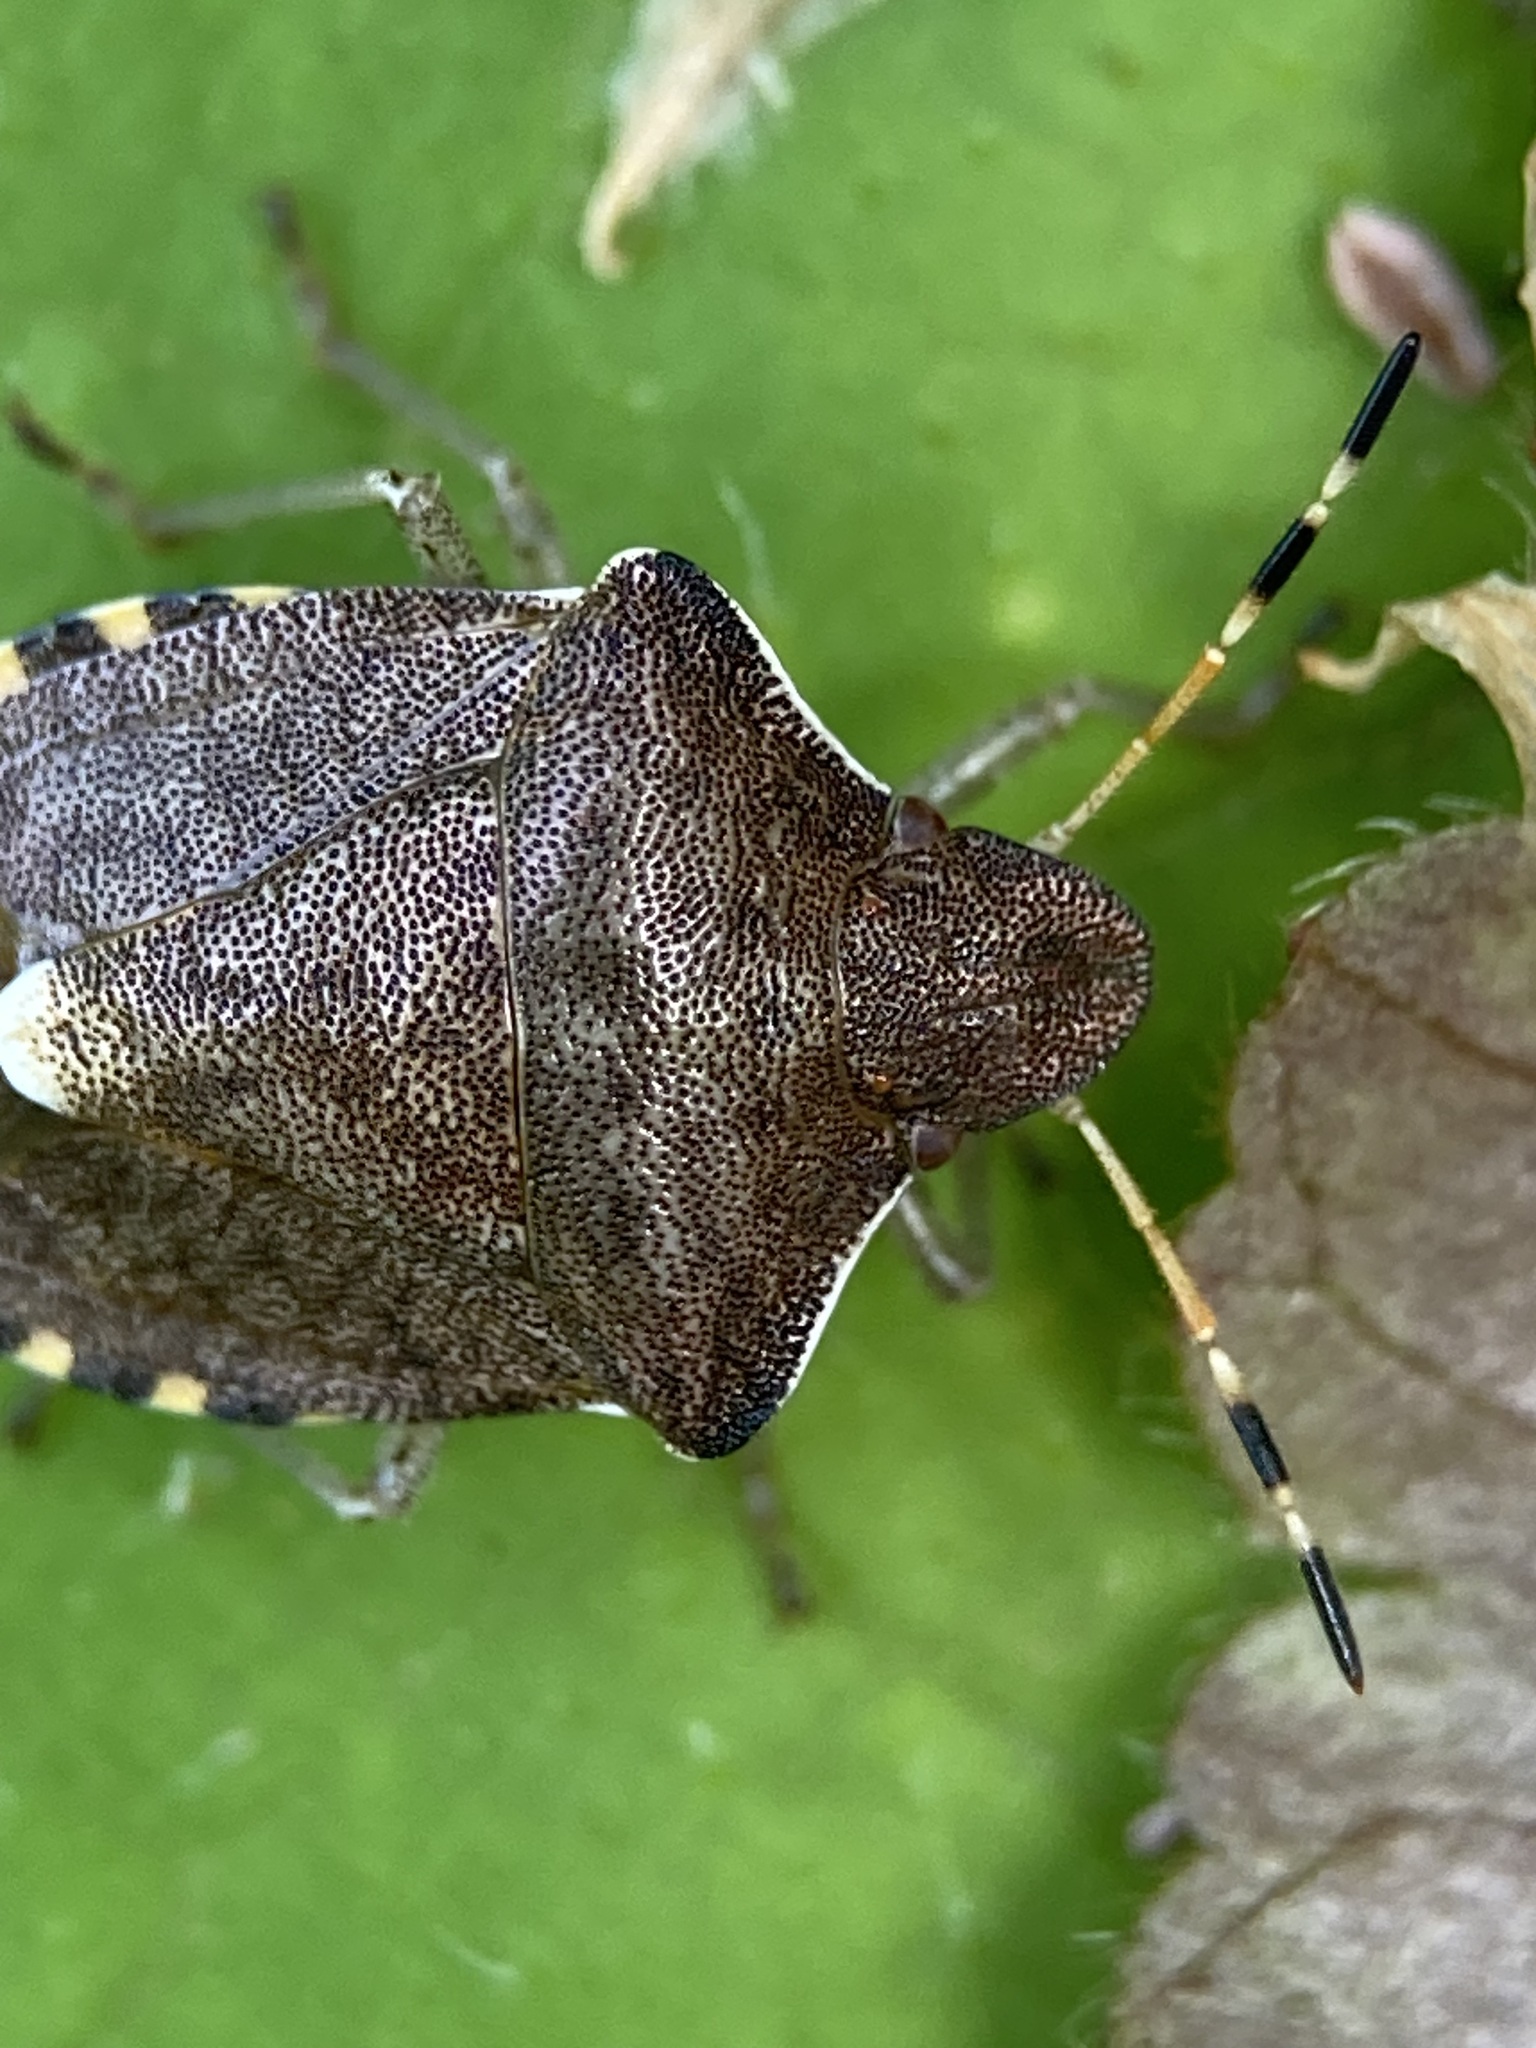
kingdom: Animalia
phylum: Arthropoda
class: Insecta
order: Hemiptera
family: Pentatomidae
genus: Holcostethus
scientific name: Holcostethus strictus
